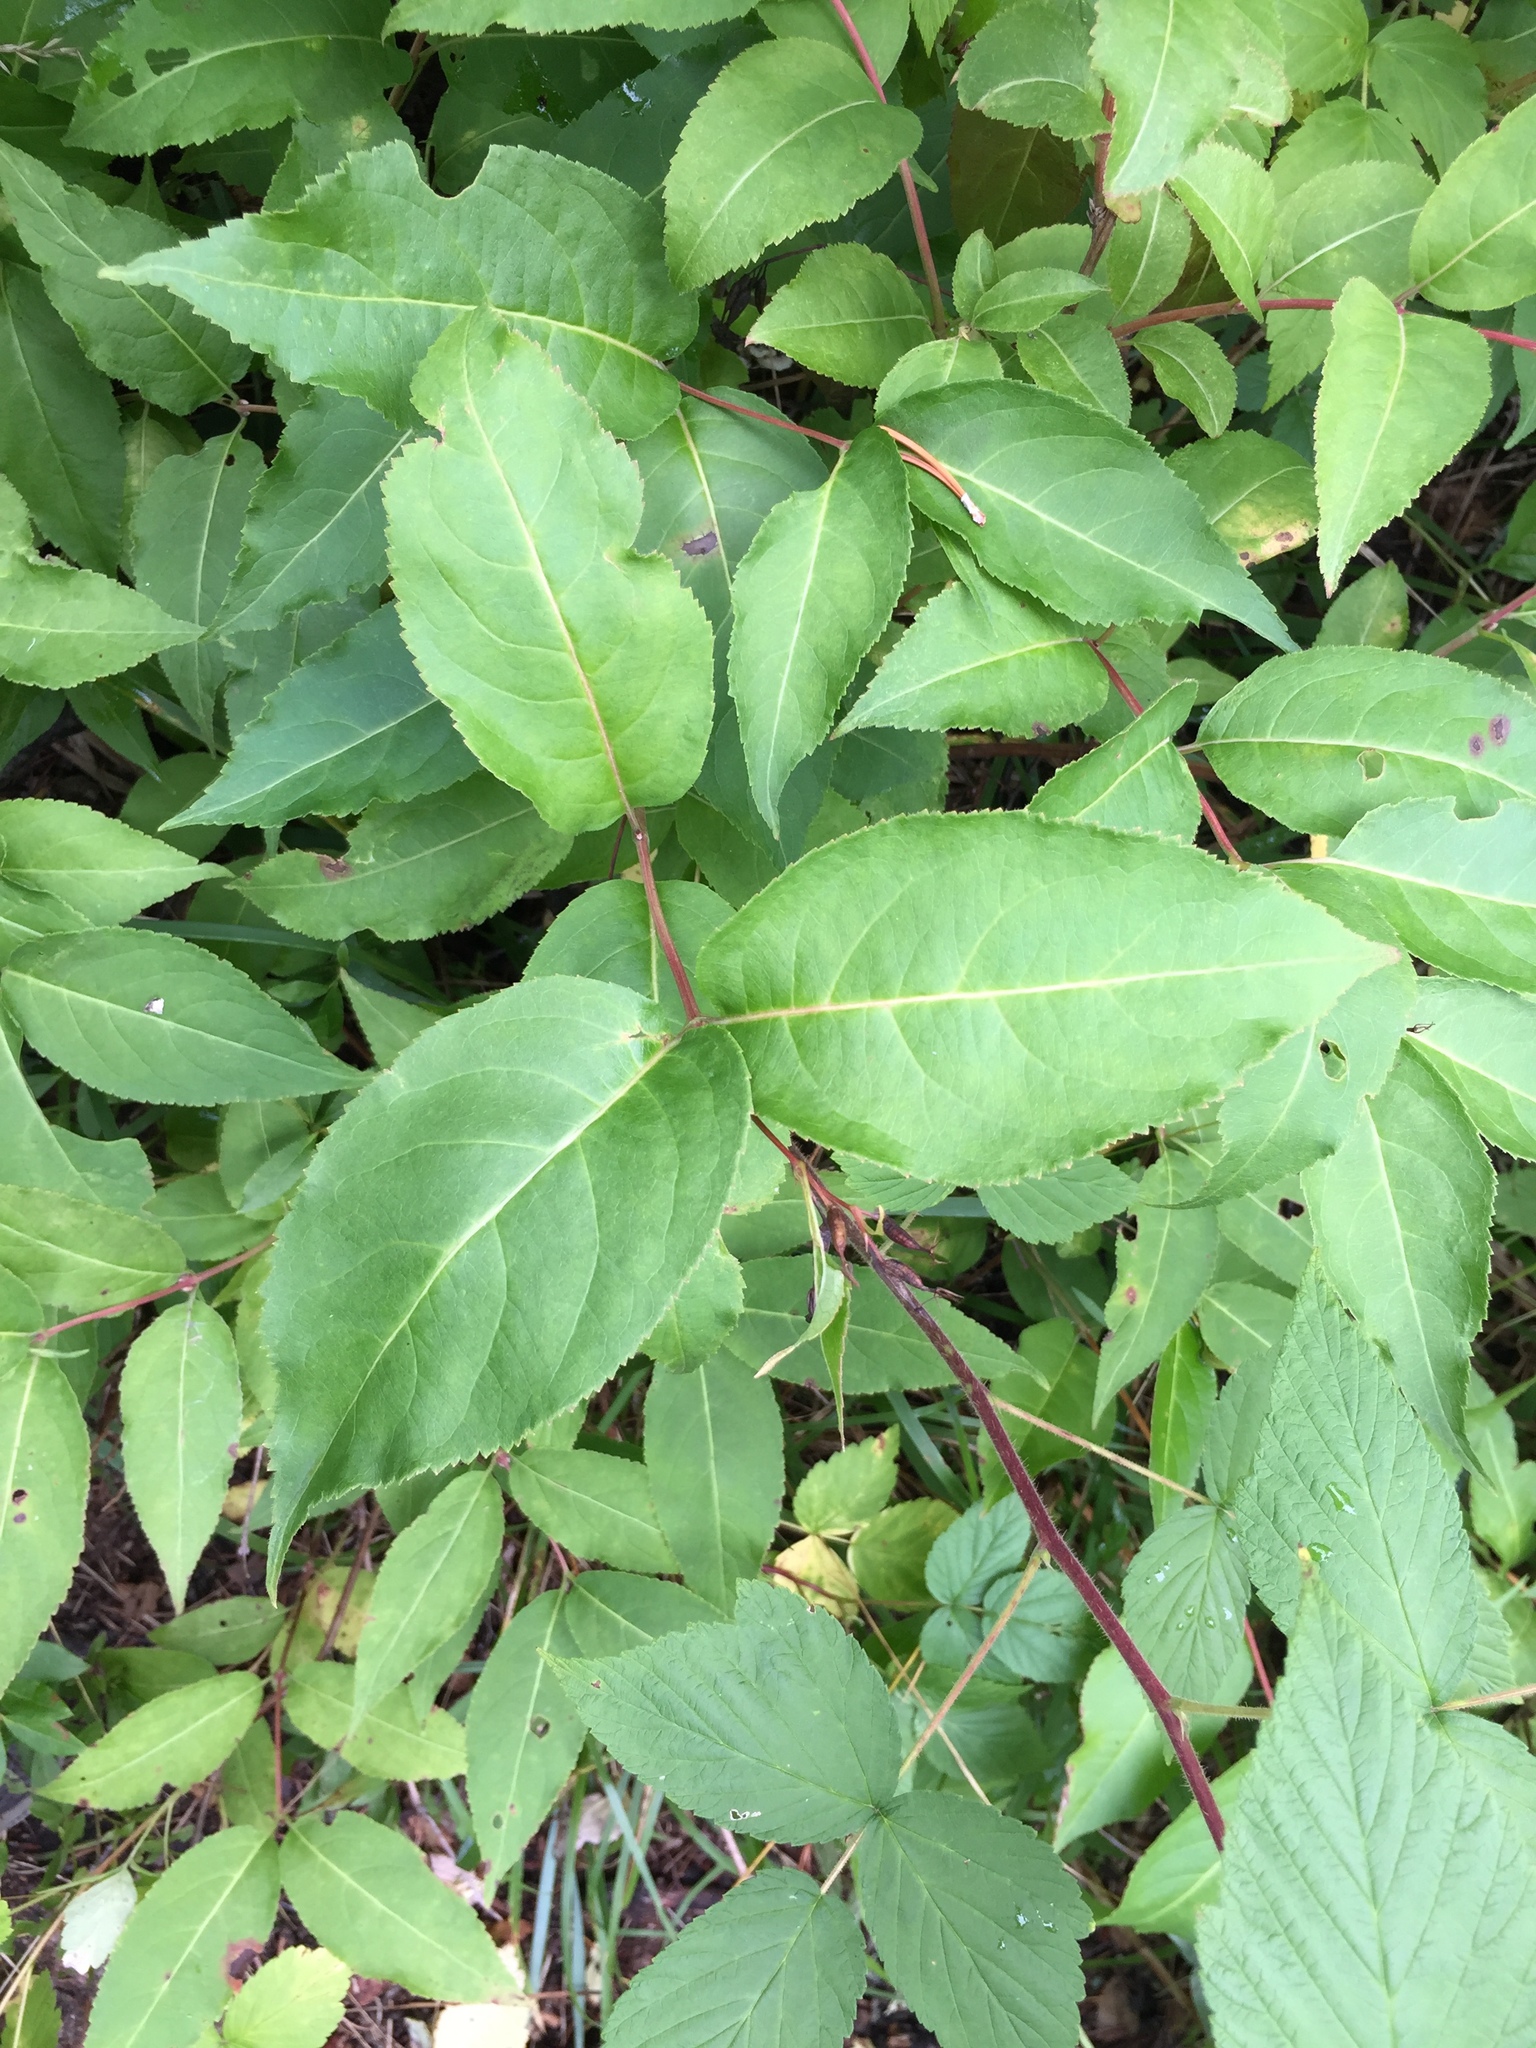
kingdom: Plantae
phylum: Tracheophyta
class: Magnoliopsida
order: Dipsacales
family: Caprifoliaceae
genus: Diervilla
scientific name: Diervilla lonicera
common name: Bush-honeysuckle
